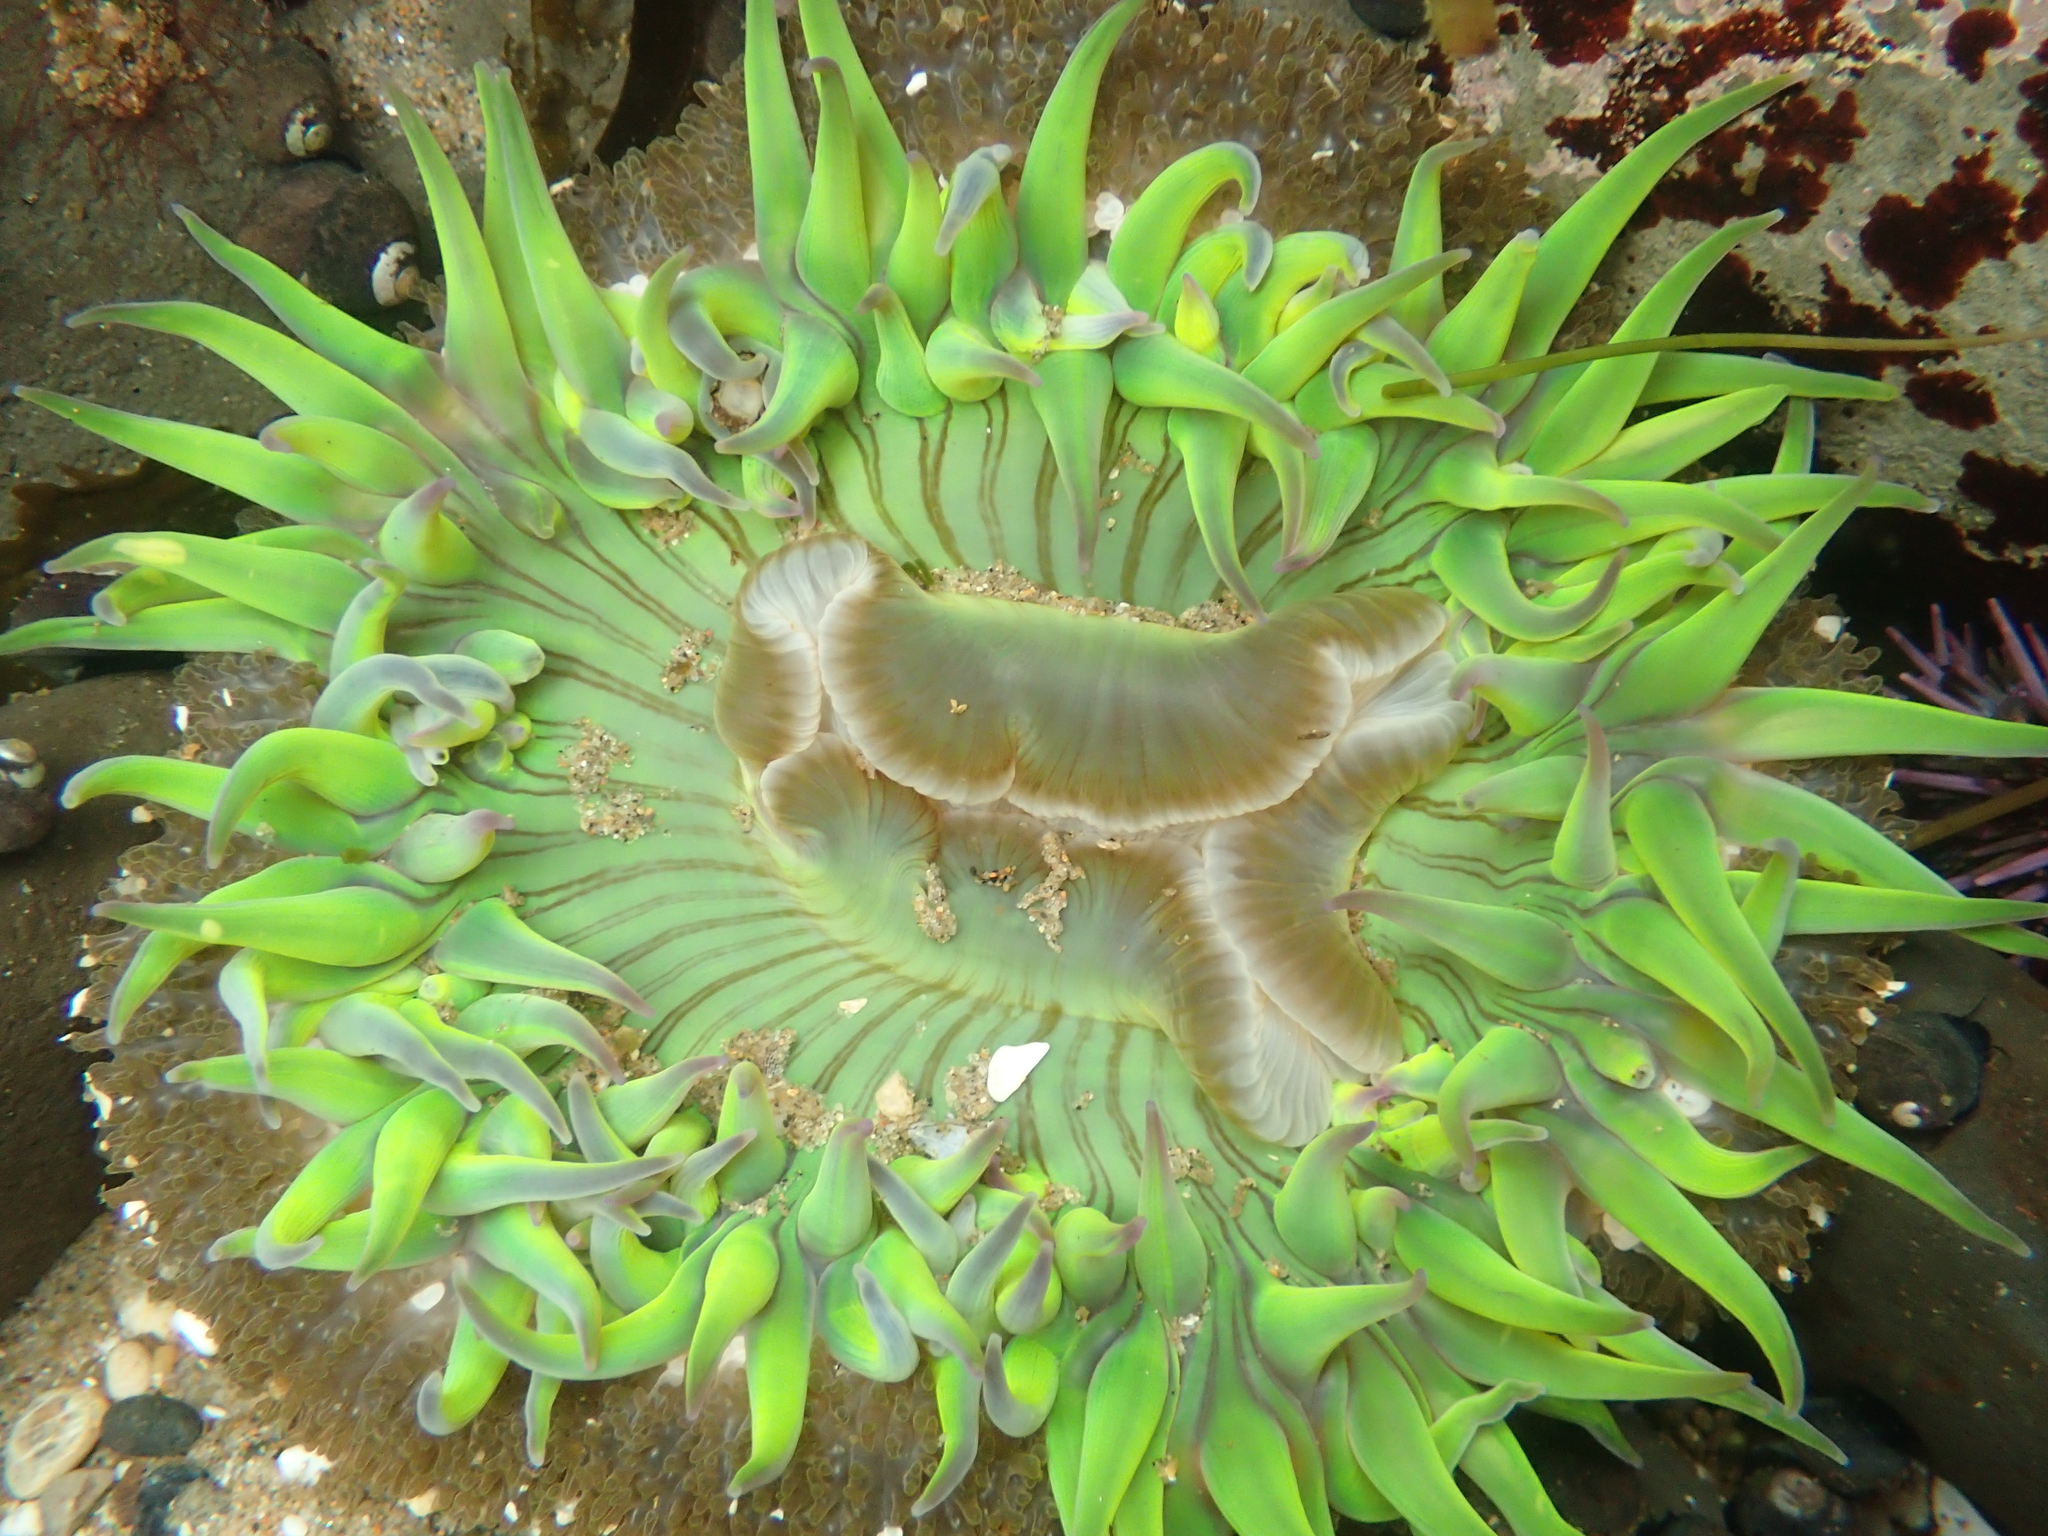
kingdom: Animalia
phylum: Cnidaria
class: Anthozoa
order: Actiniaria
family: Actiniidae
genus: Anthopleura
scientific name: Anthopleura sola
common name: Sun anemone
